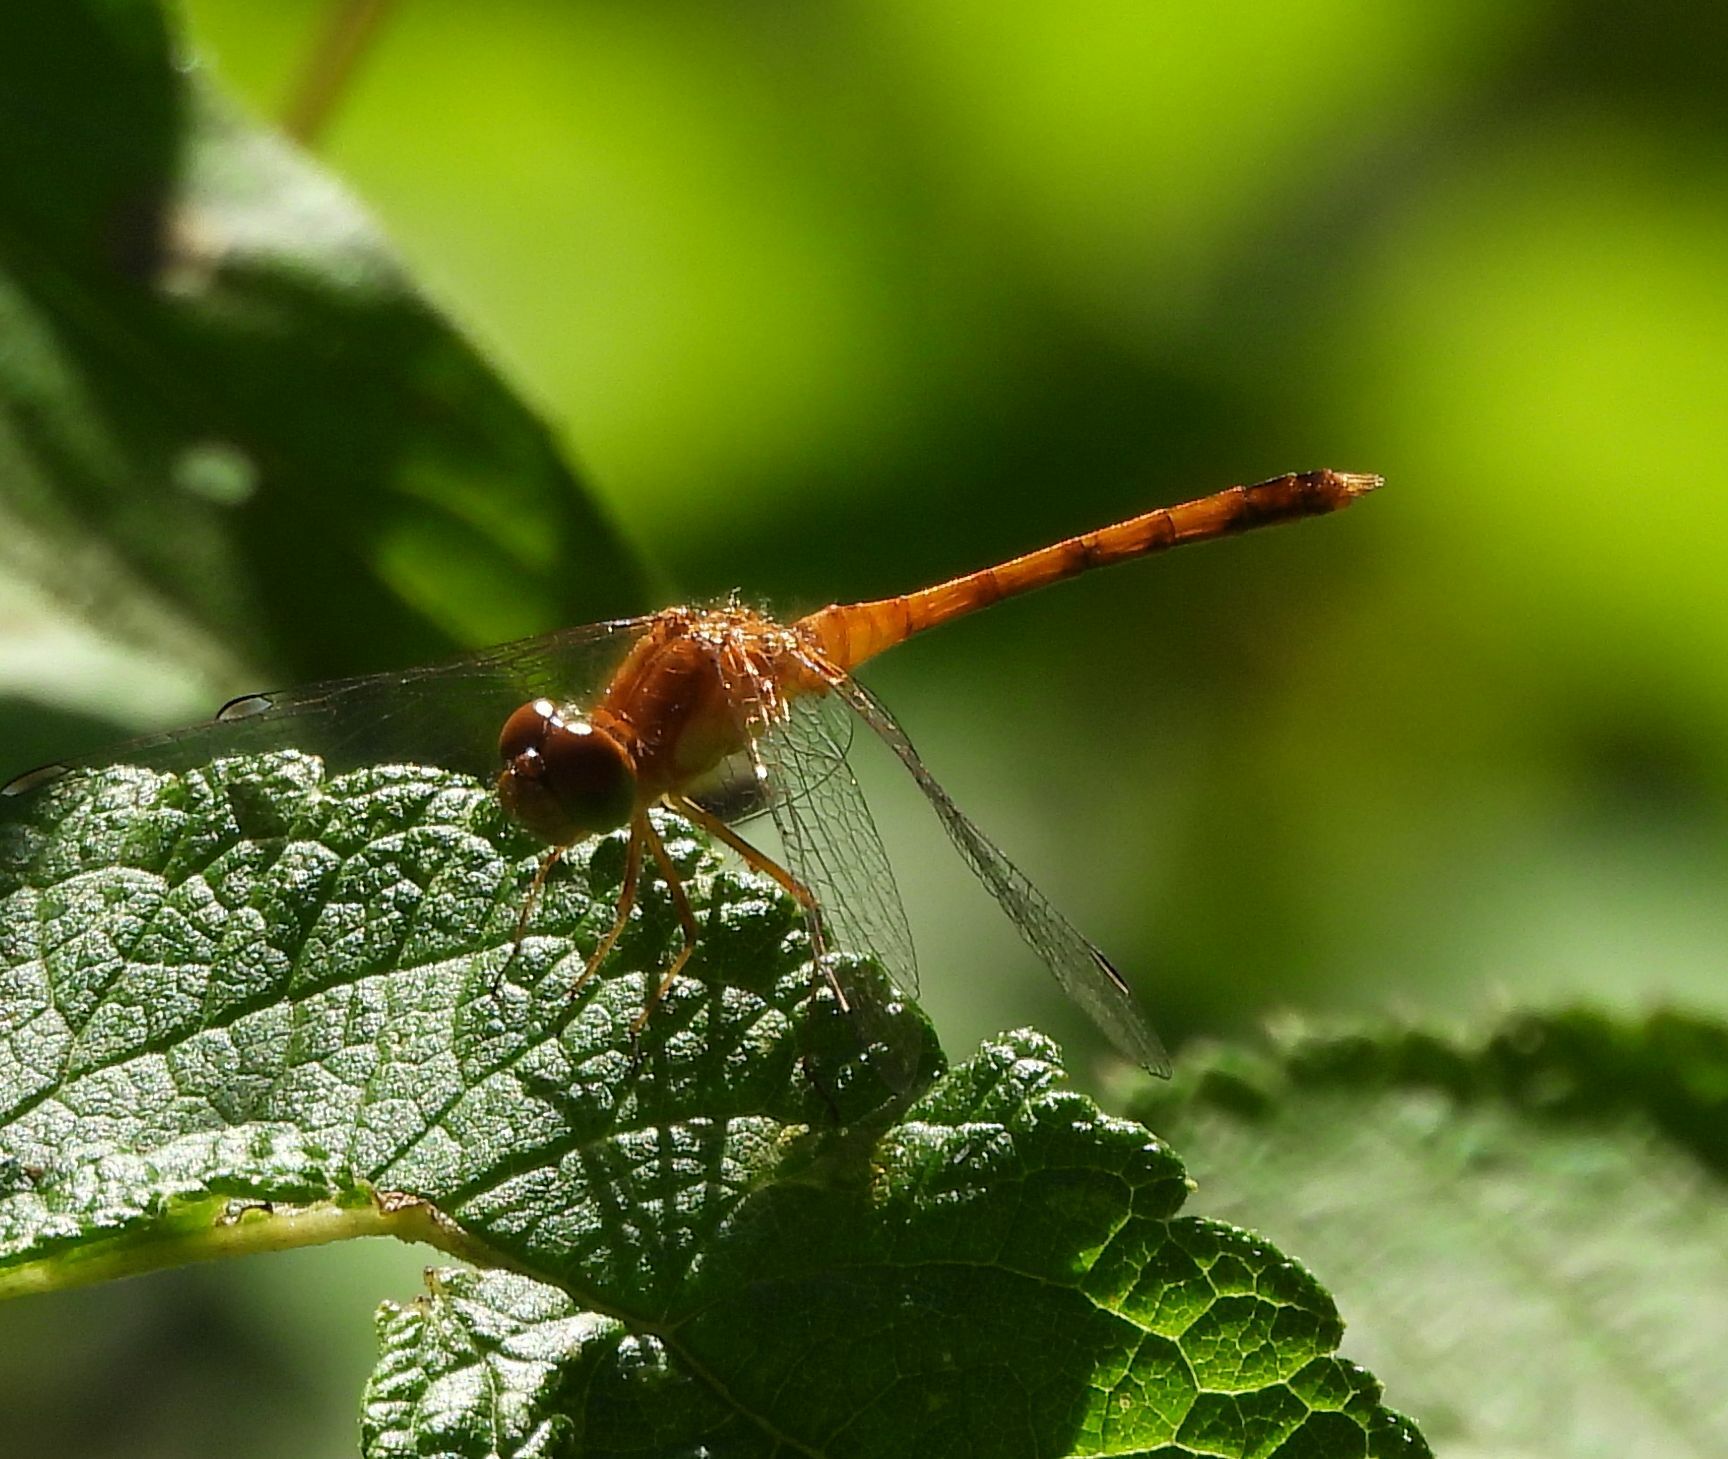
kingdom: Animalia
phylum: Arthropoda
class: Insecta
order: Odonata
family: Libellulidae
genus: Sympetrum
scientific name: Sympetrum vicinum
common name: Autumn meadowhawk
